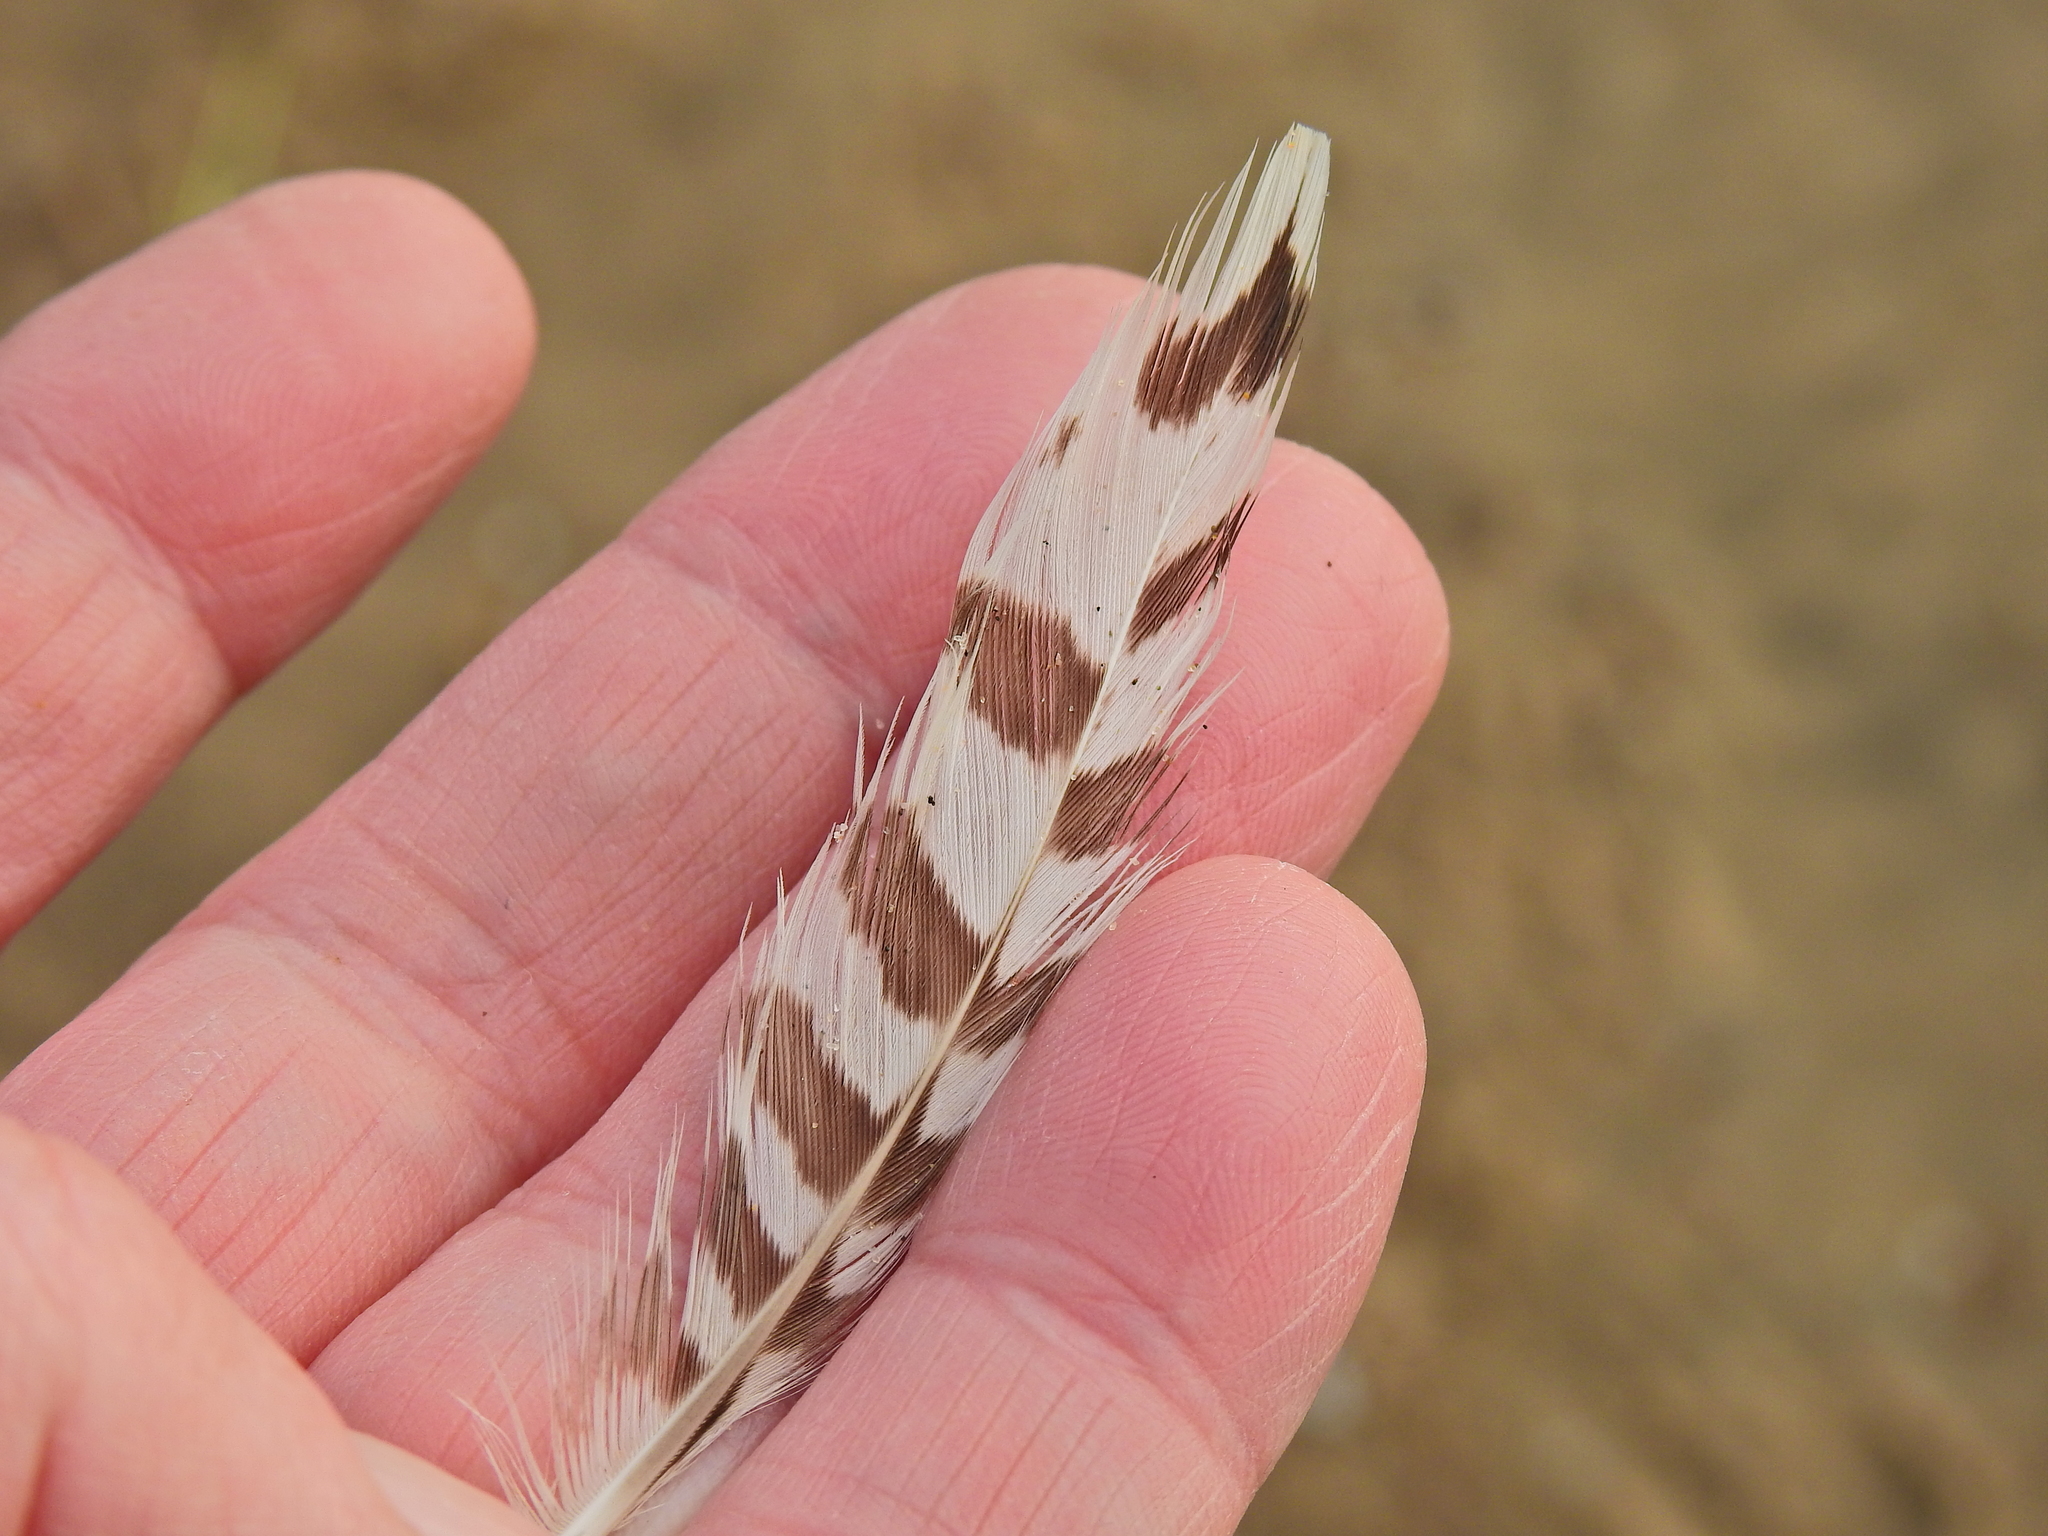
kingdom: Animalia
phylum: Chordata
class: Aves
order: Charadriiformes
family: Scolopacidae
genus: Numenius
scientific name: Numenius arquata
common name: Eurasian curlew
